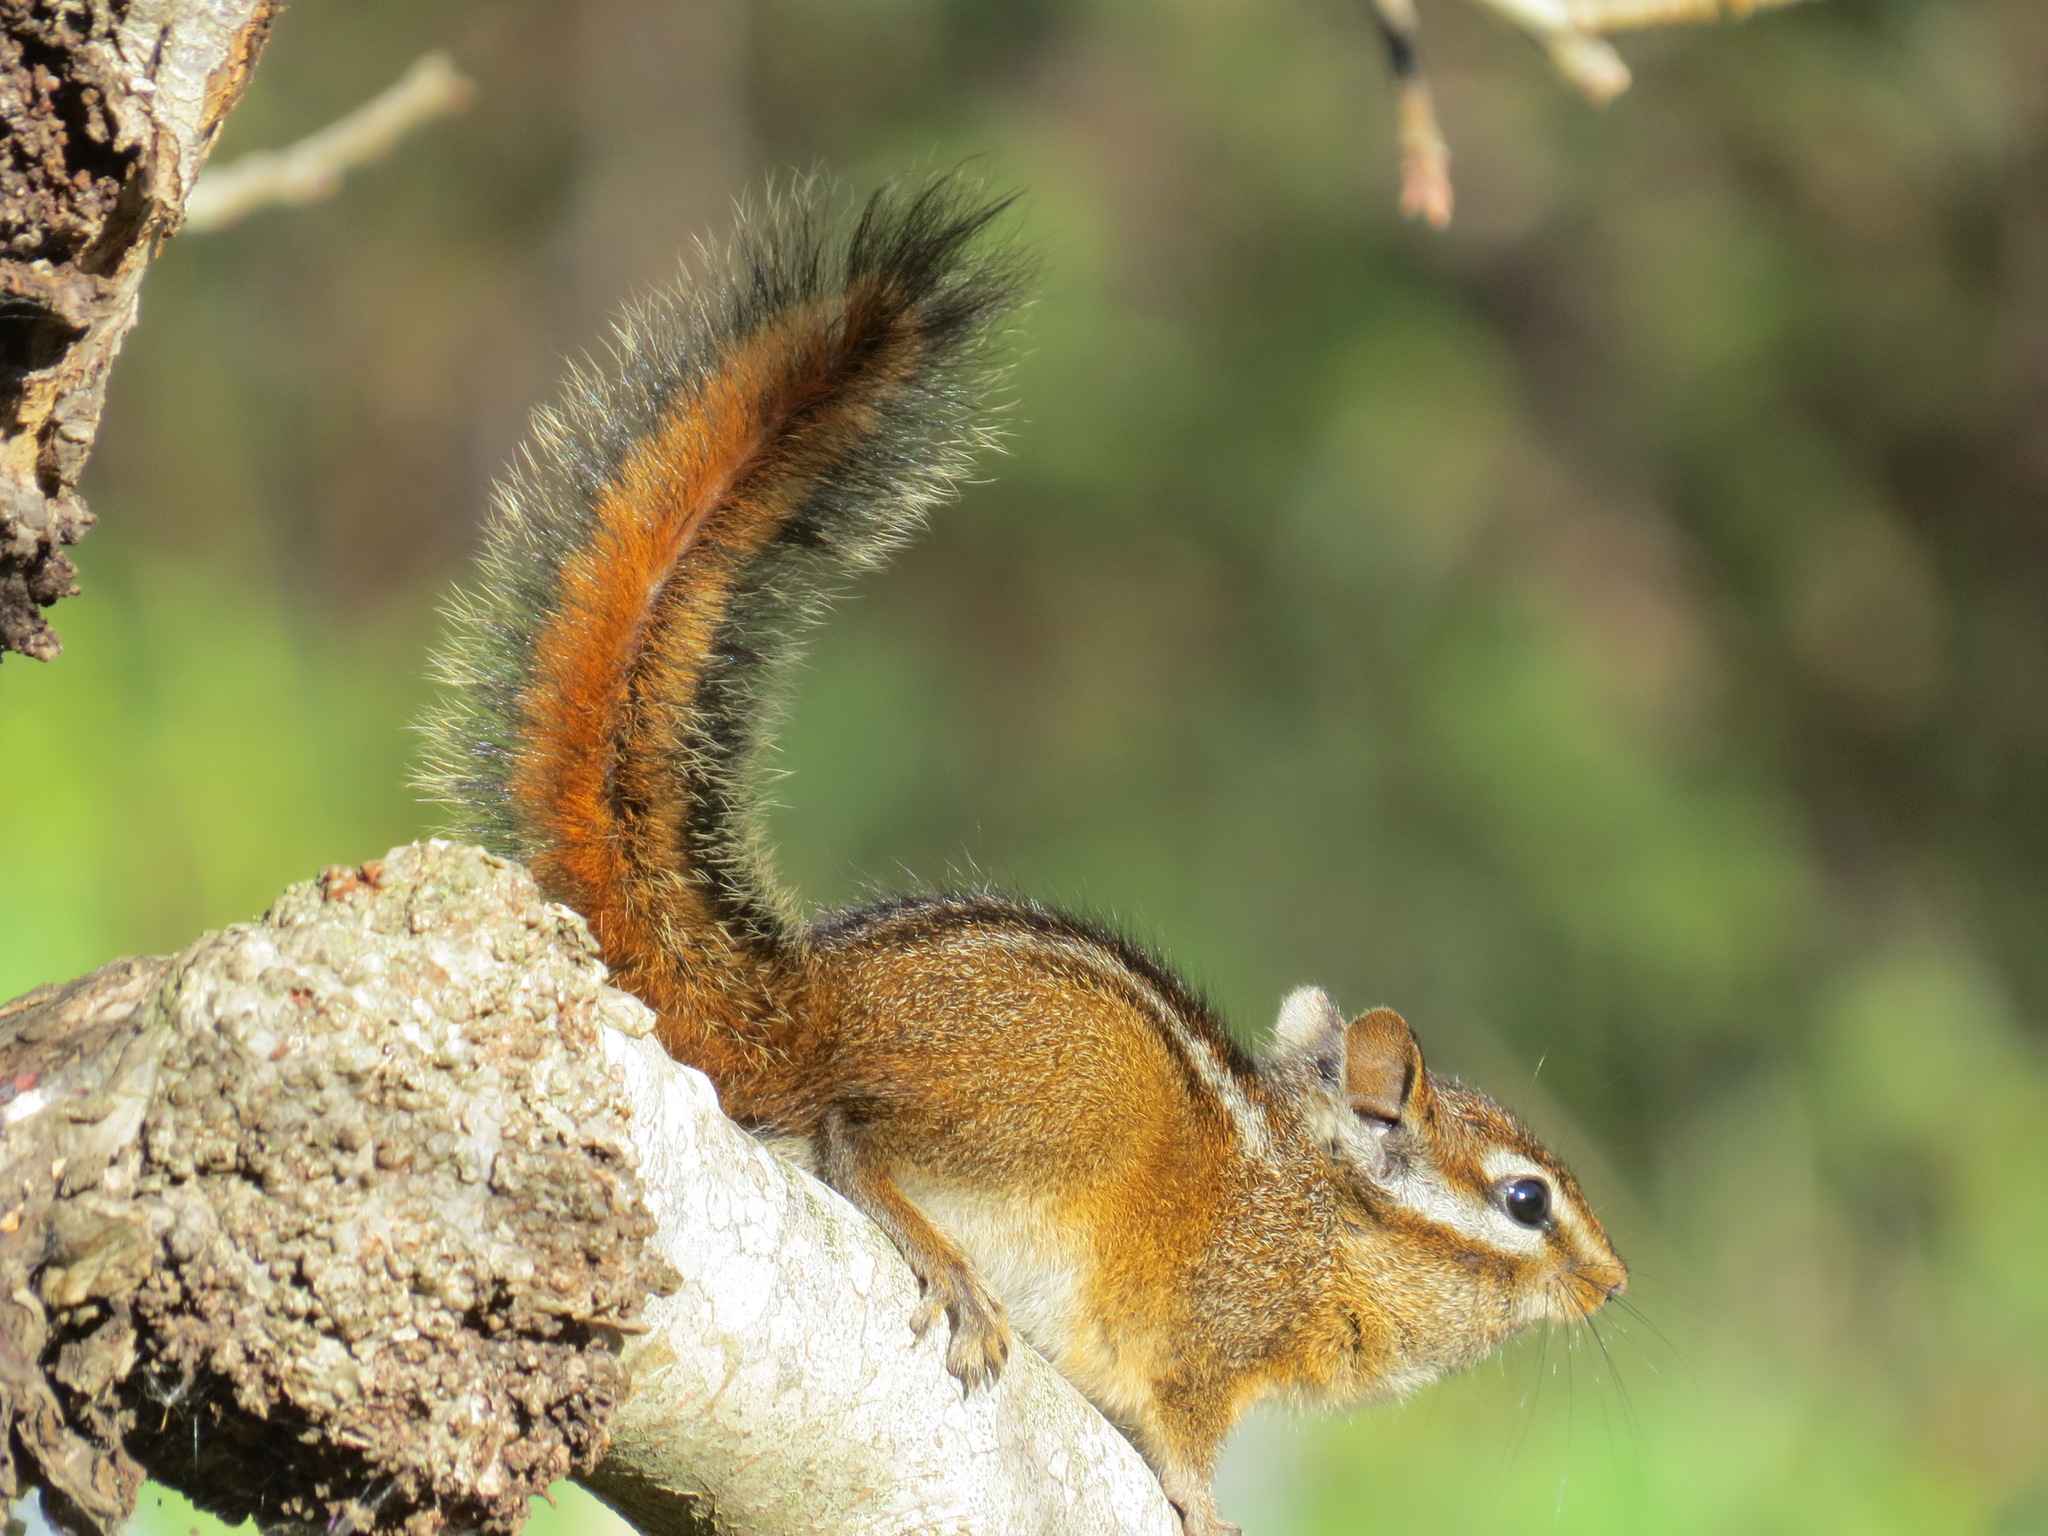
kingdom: Animalia
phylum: Chordata
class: Mammalia
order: Rodentia
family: Sciuridae
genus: Tamias
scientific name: Tamias merriami
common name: Merriam's chipmunk
